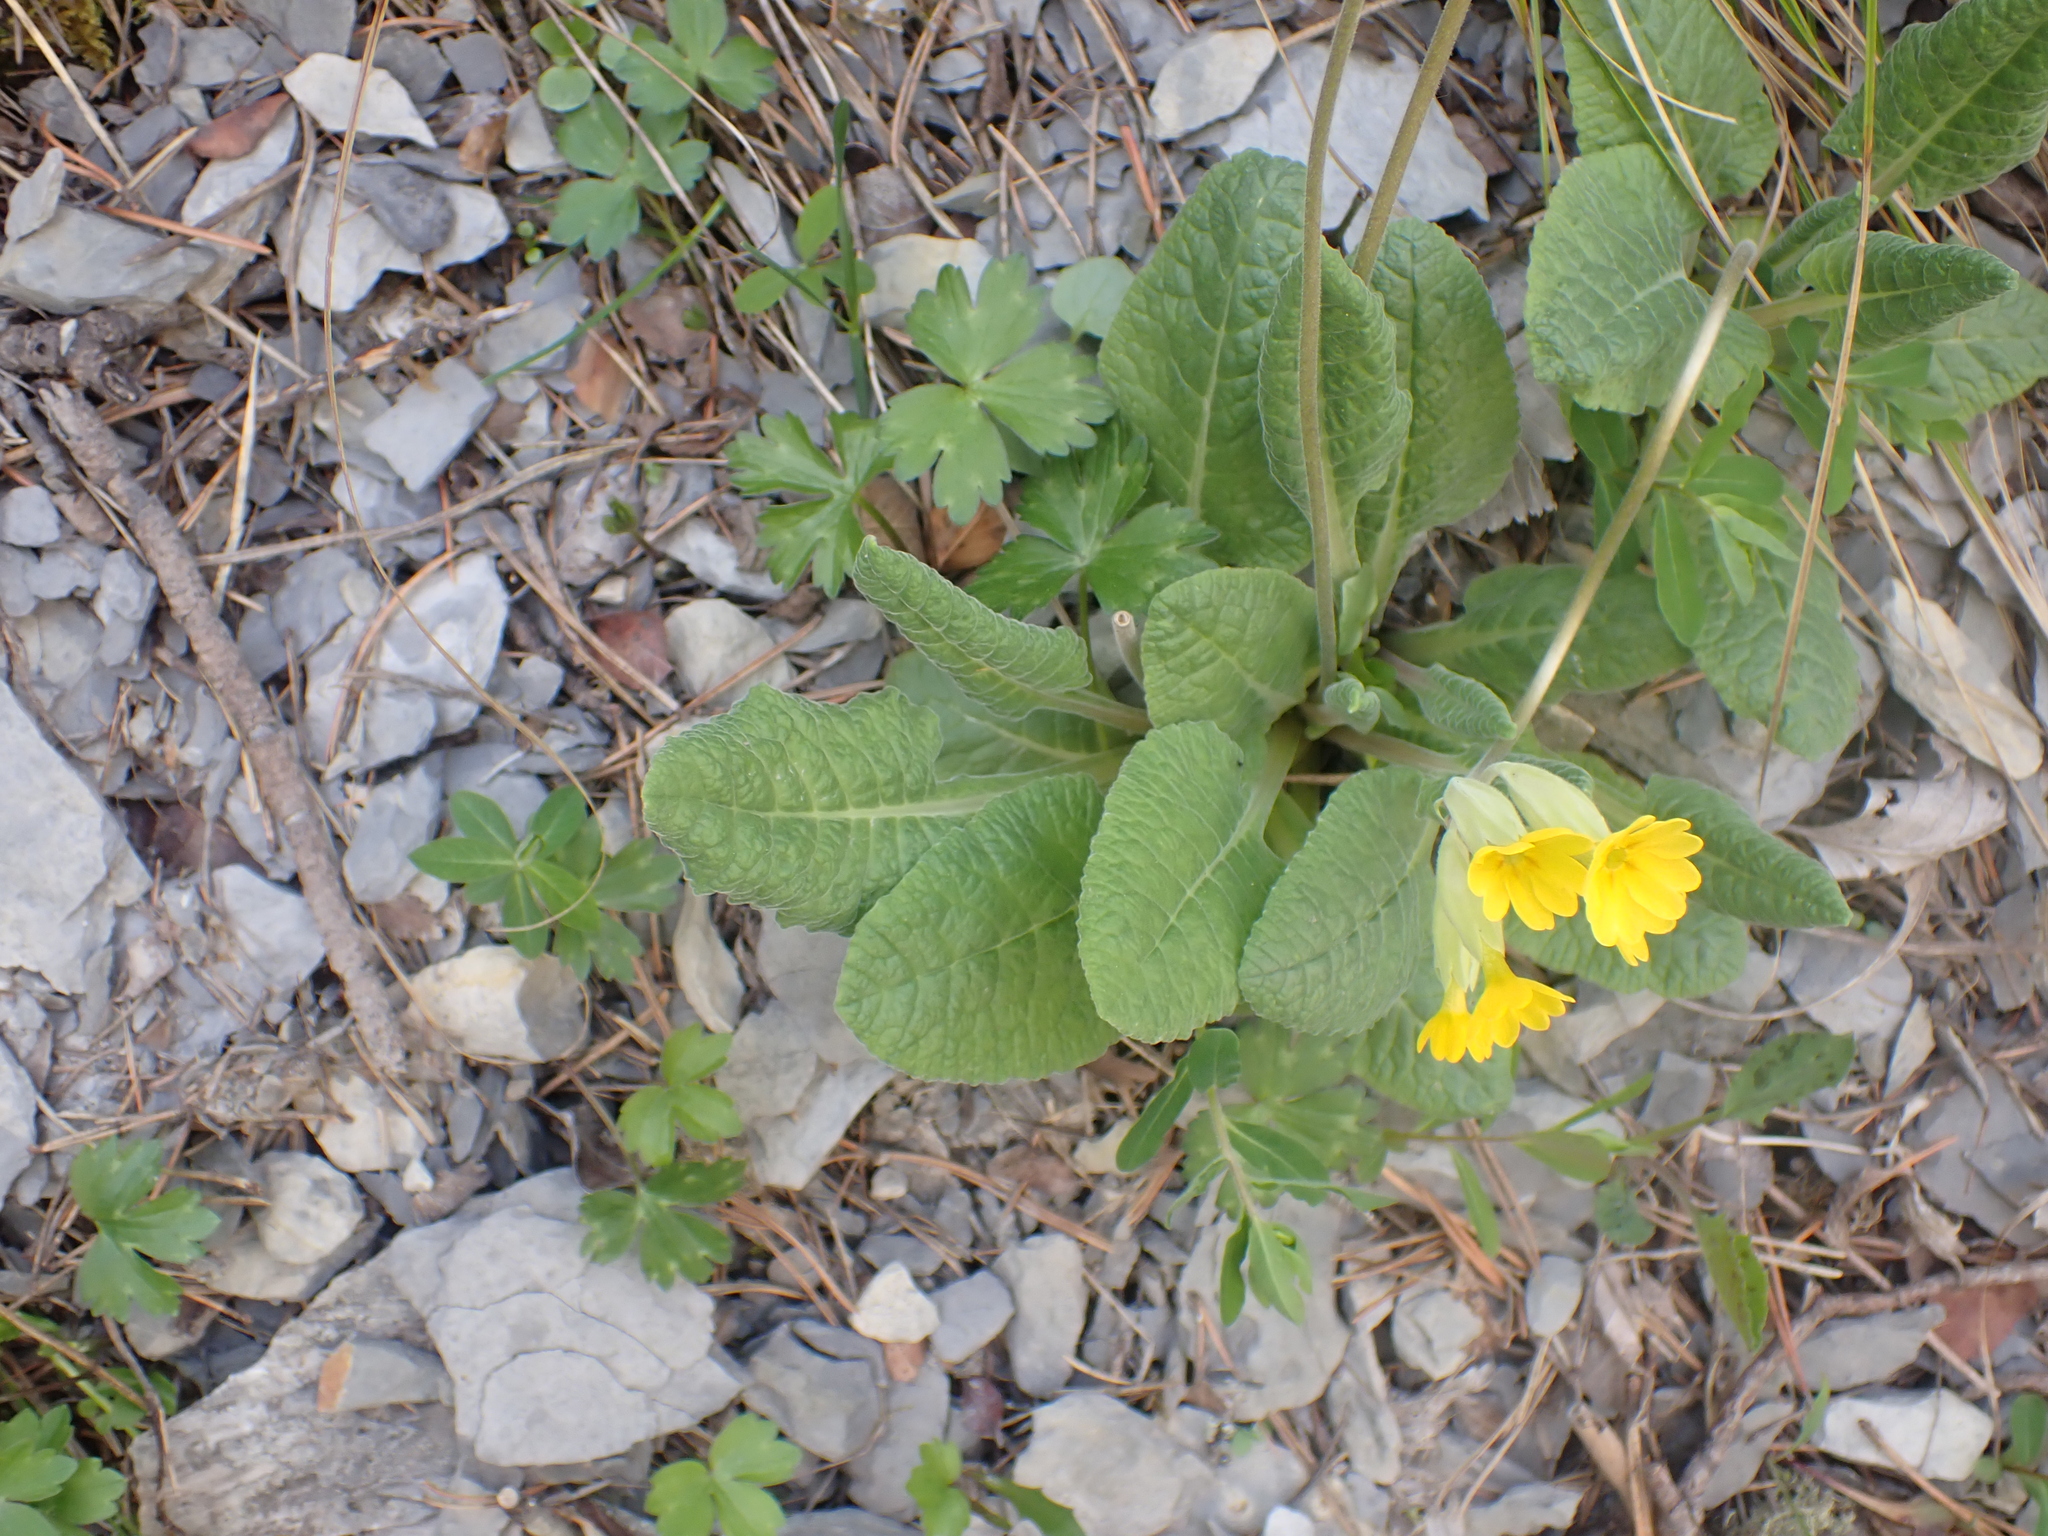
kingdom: Plantae
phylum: Tracheophyta
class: Magnoliopsida
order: Ericales
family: Primulaceae
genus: Primula
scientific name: Primula veris
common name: Cowslip
